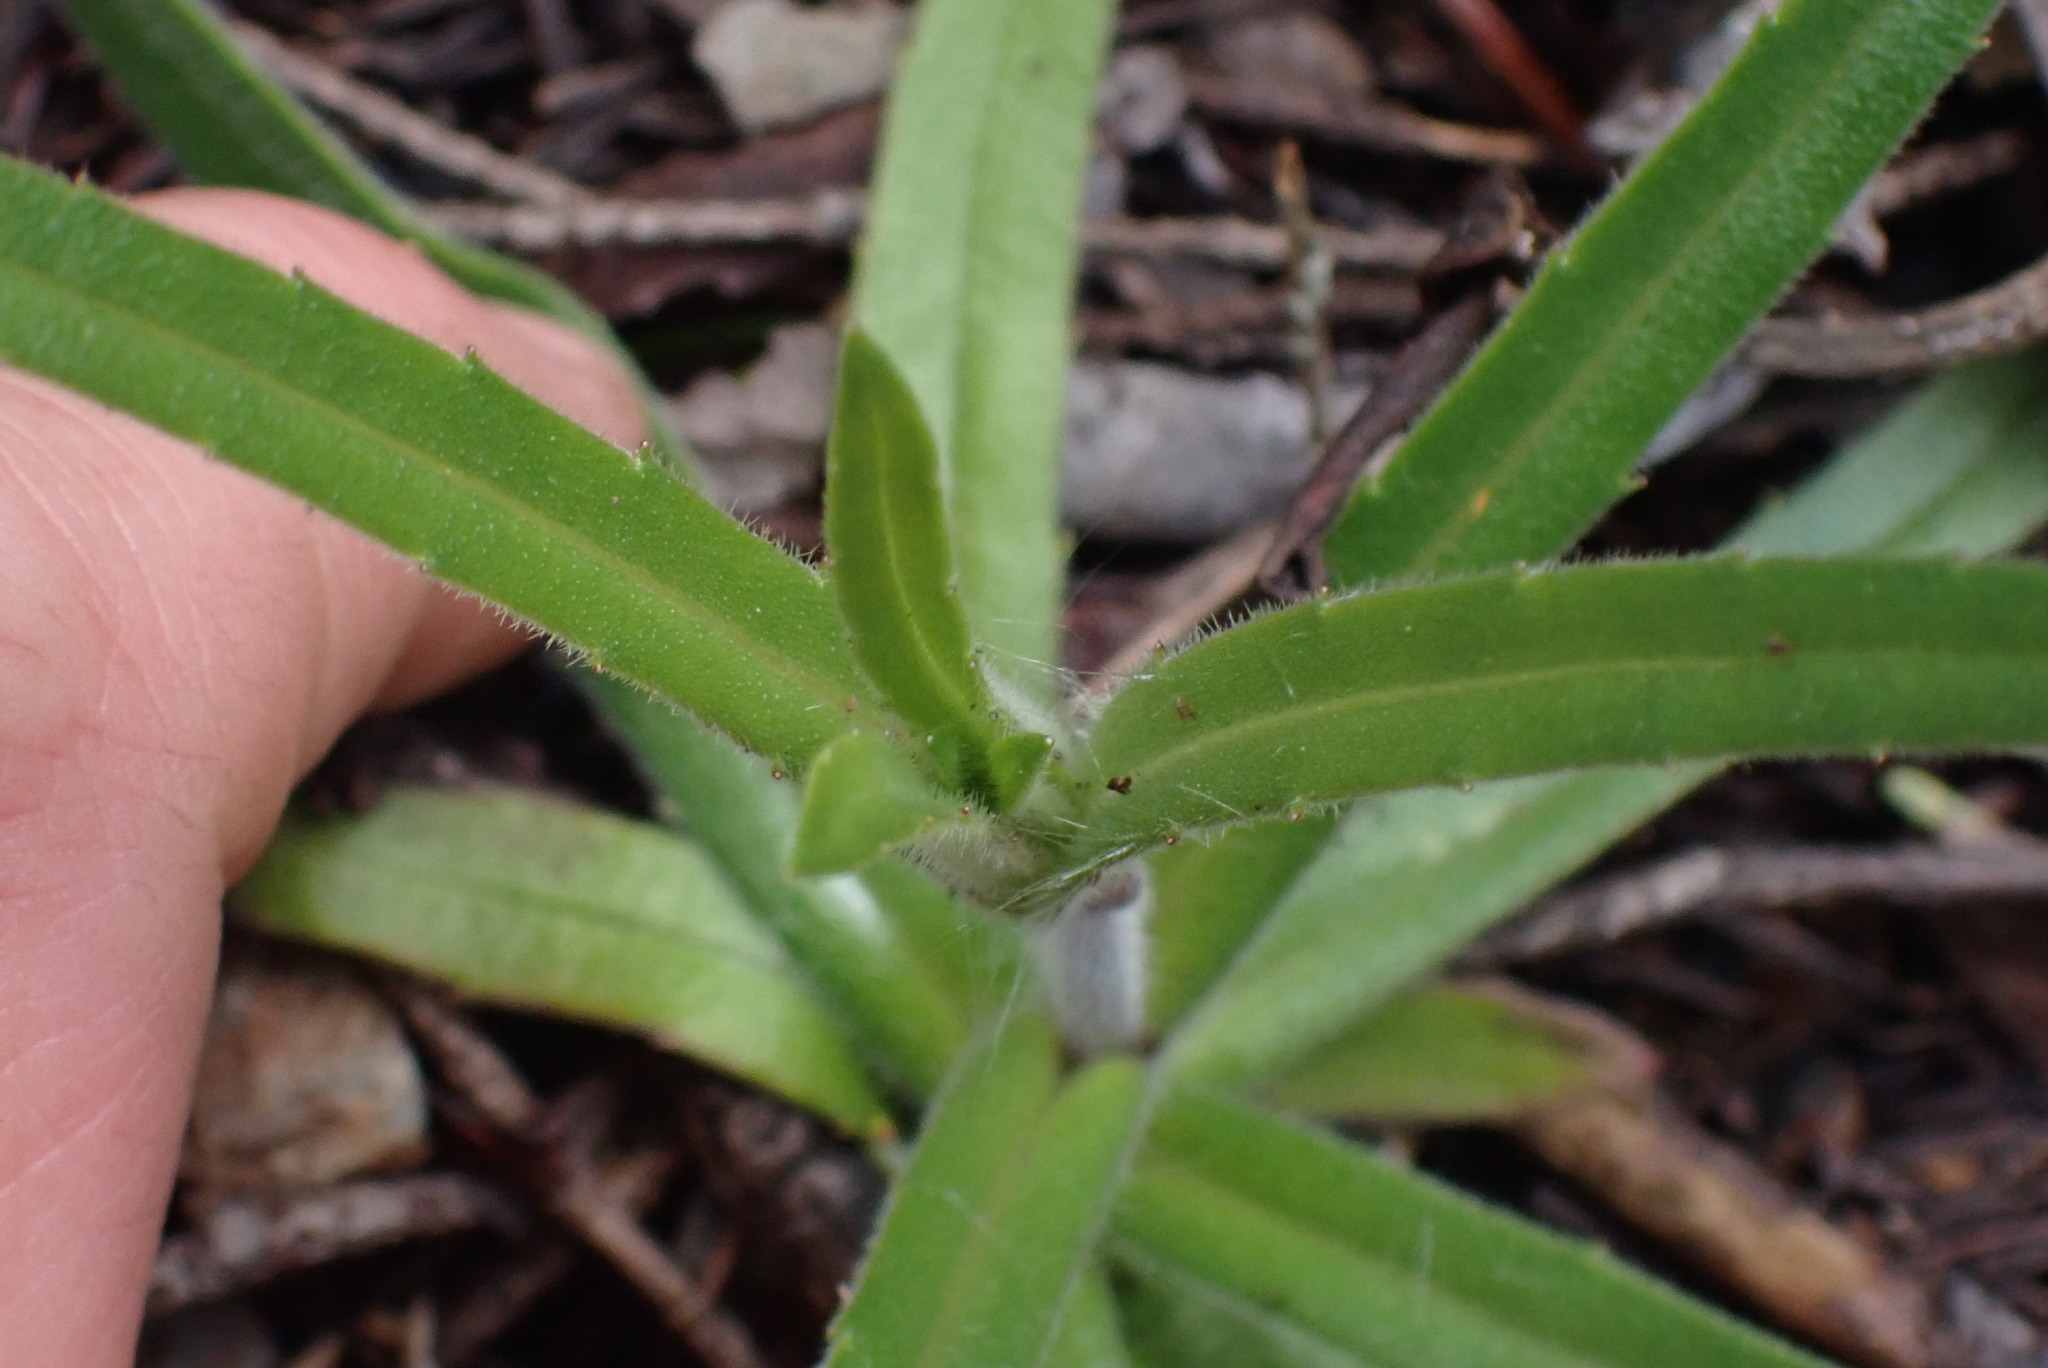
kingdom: Plantae
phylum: Tracheophyta
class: Magnoliopsida
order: Asterales
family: Asteraceae
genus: Anisocarpus
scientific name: Anisocarpus madioides
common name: Woodland madia
